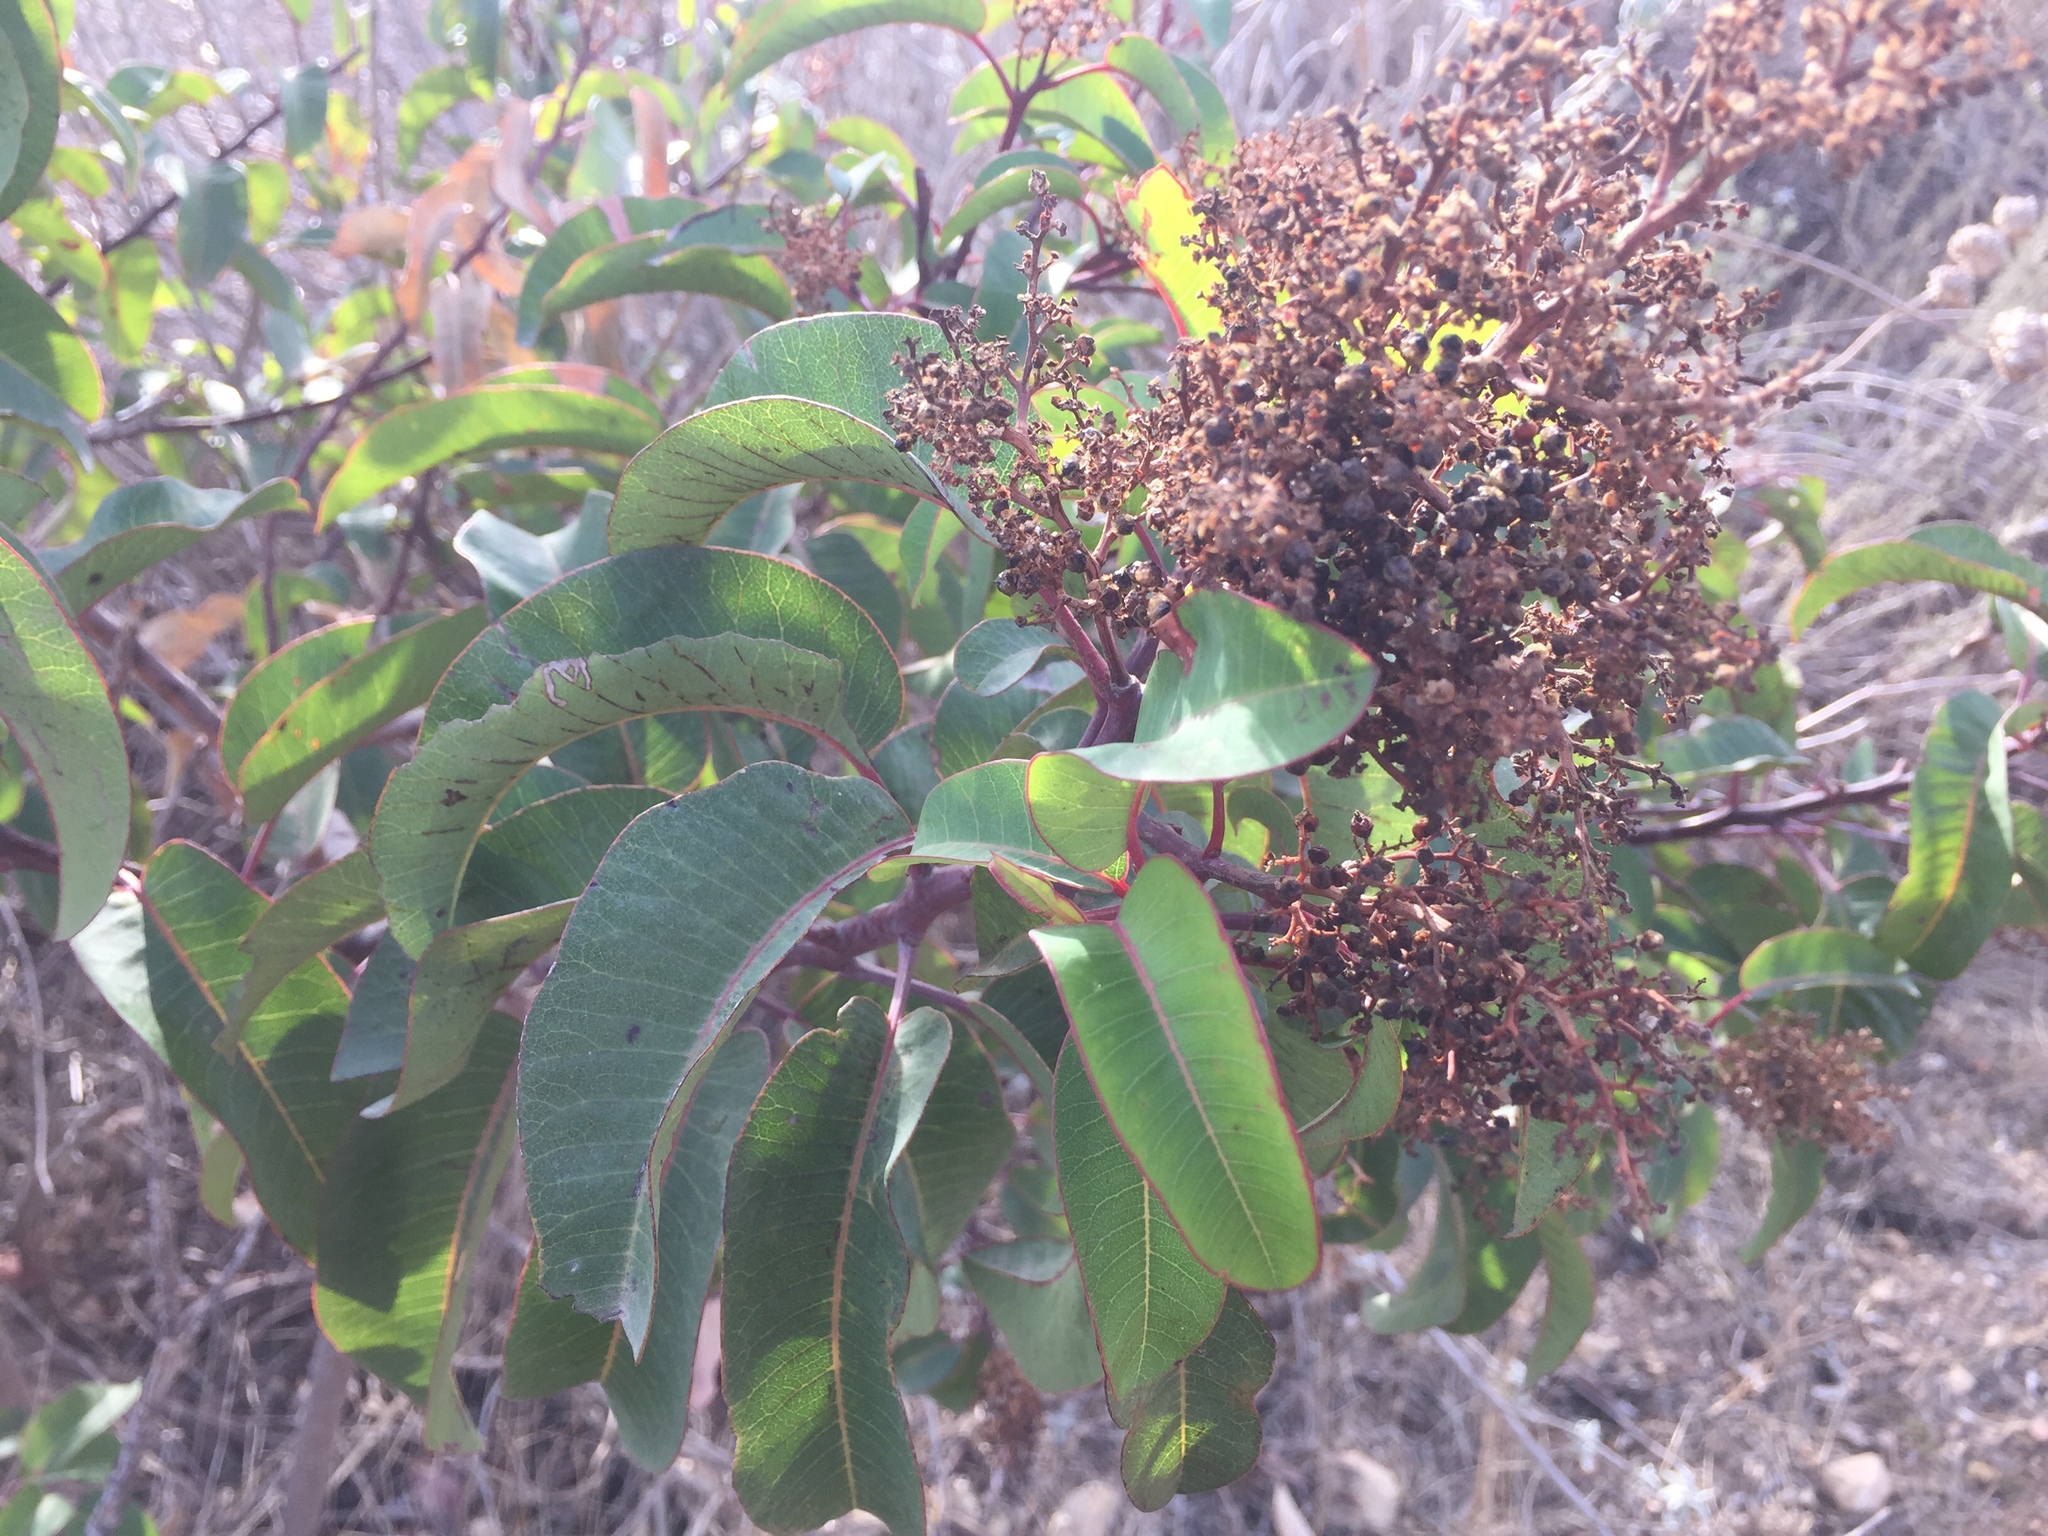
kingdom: Plantae
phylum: Tracheophyta
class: Magnoliopsida
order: Sapindales
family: Anacardiaceae
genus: Malosma
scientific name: Malosma laurina
